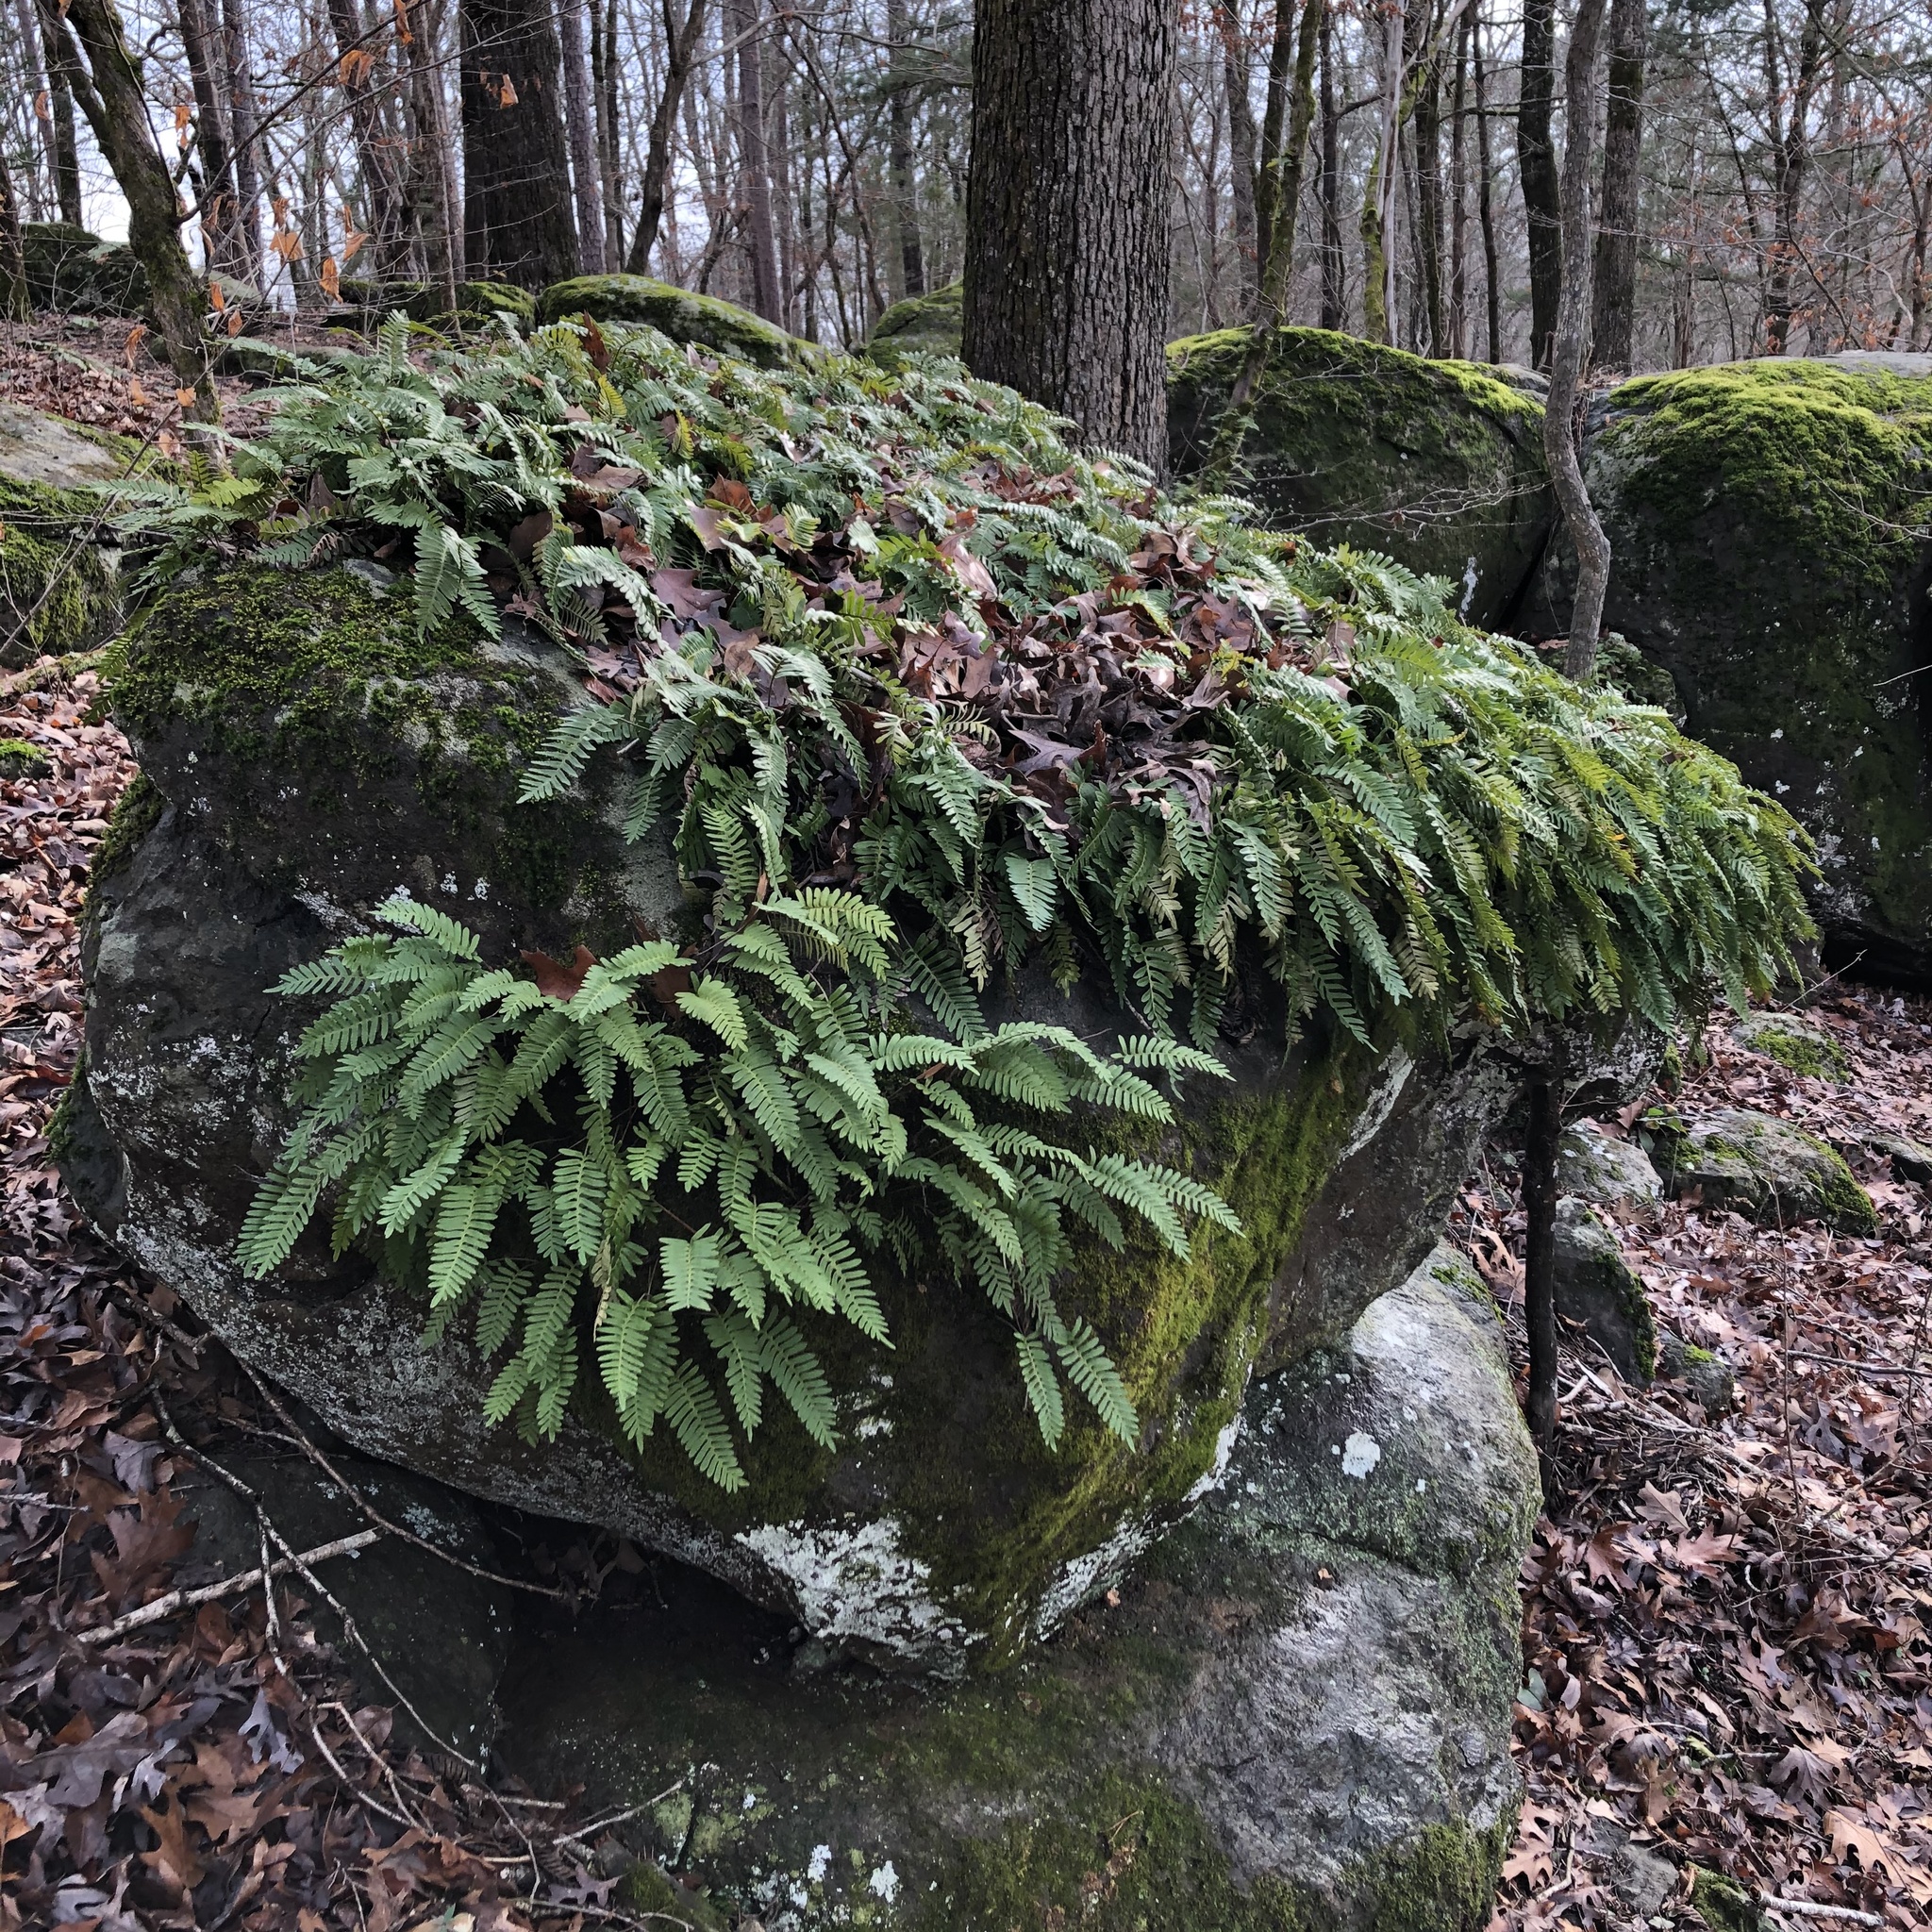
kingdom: Plantae
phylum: Tracheophyta
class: Polypodiopsida
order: Polypodiales
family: Polypodiaceae
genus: Pleopeltis
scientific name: Pleopeltis michauxiana
